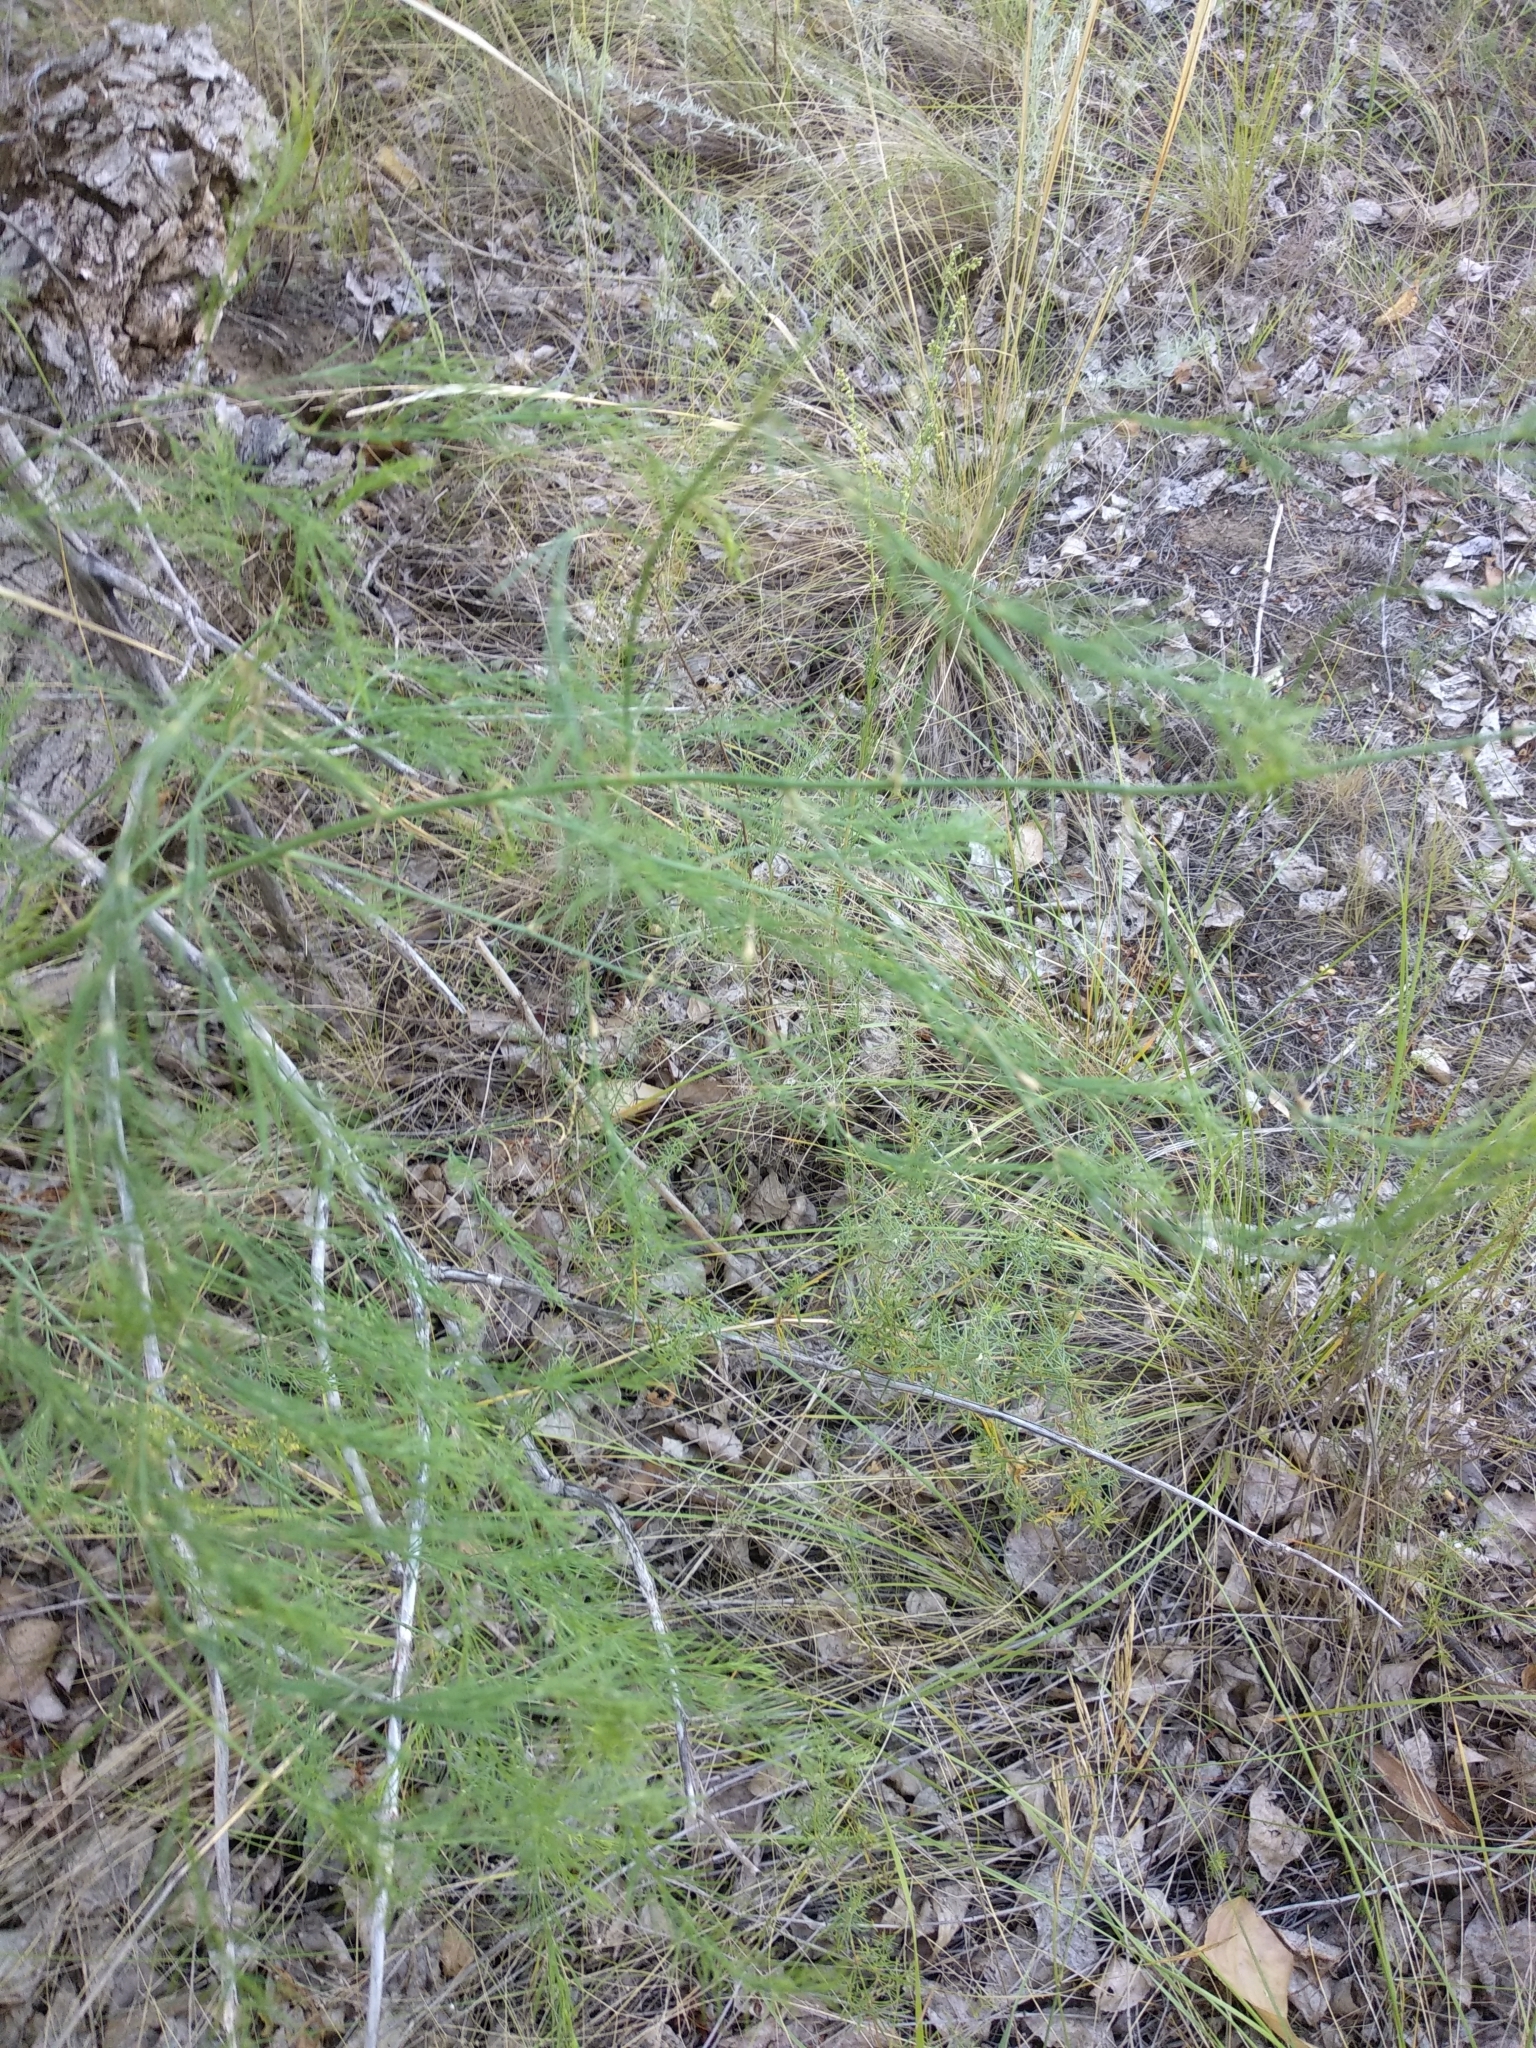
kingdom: Plantae
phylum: Tracheophyta
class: Liliopsida
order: Asparagales
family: Asparagaceae
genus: Asparagus
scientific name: Asparagus officinalis
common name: Garden asparagus
